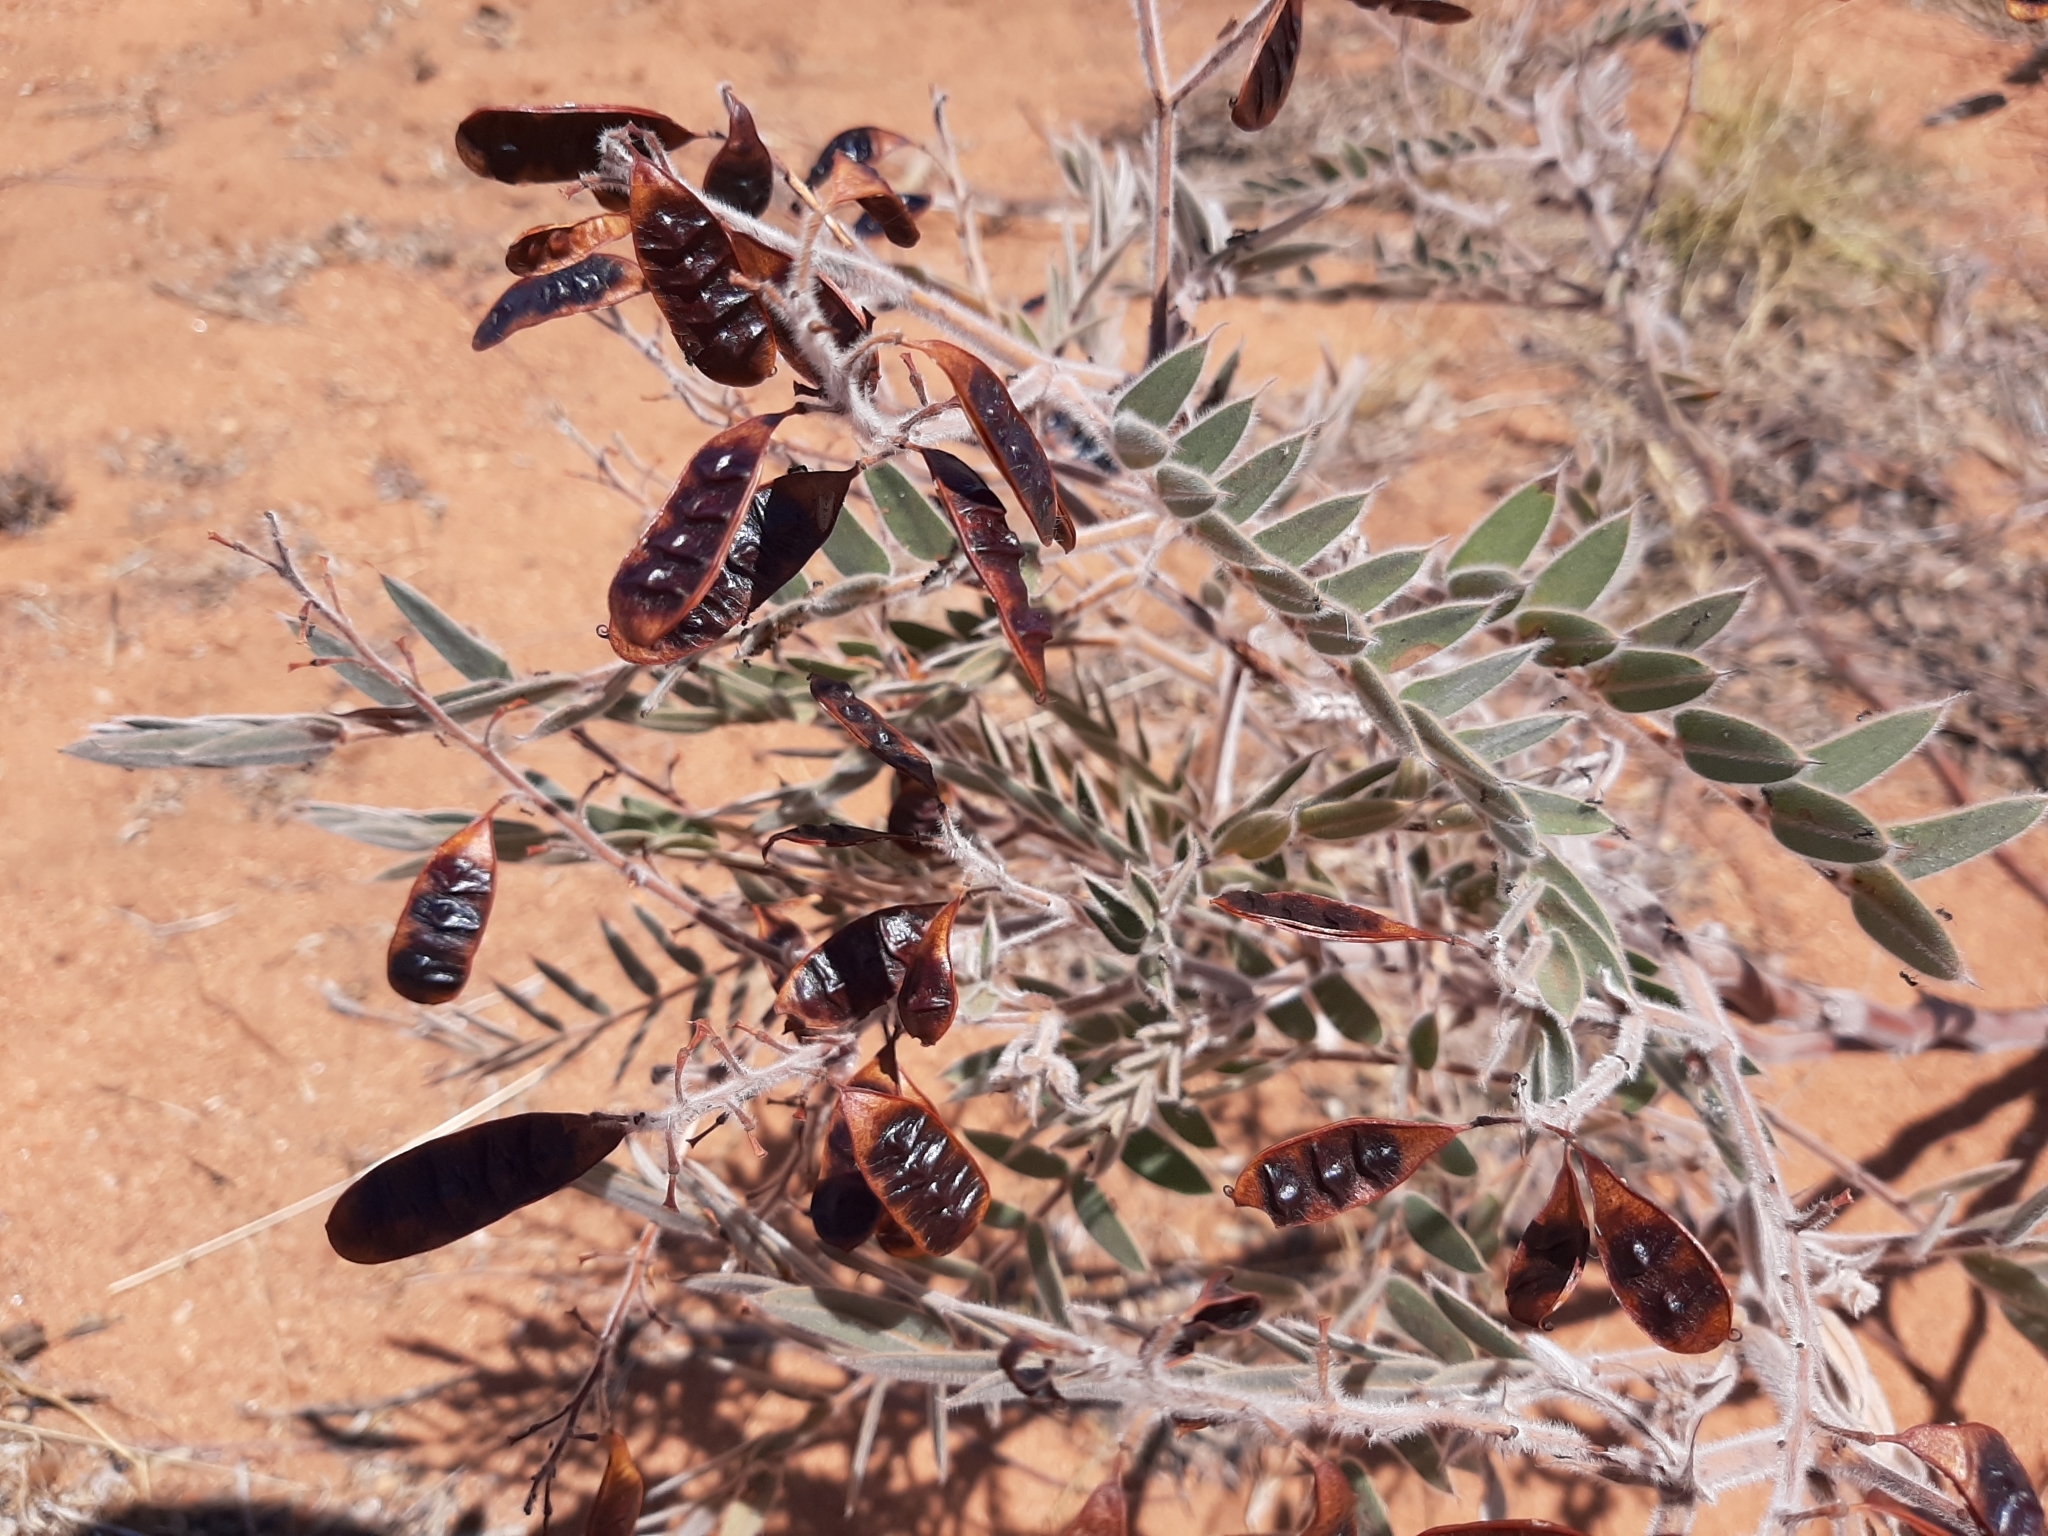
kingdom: Plantae
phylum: Tracheophyta
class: Magnoliopsida
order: Fabales
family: Fabaceae
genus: Senna
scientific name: Senna notabilis
